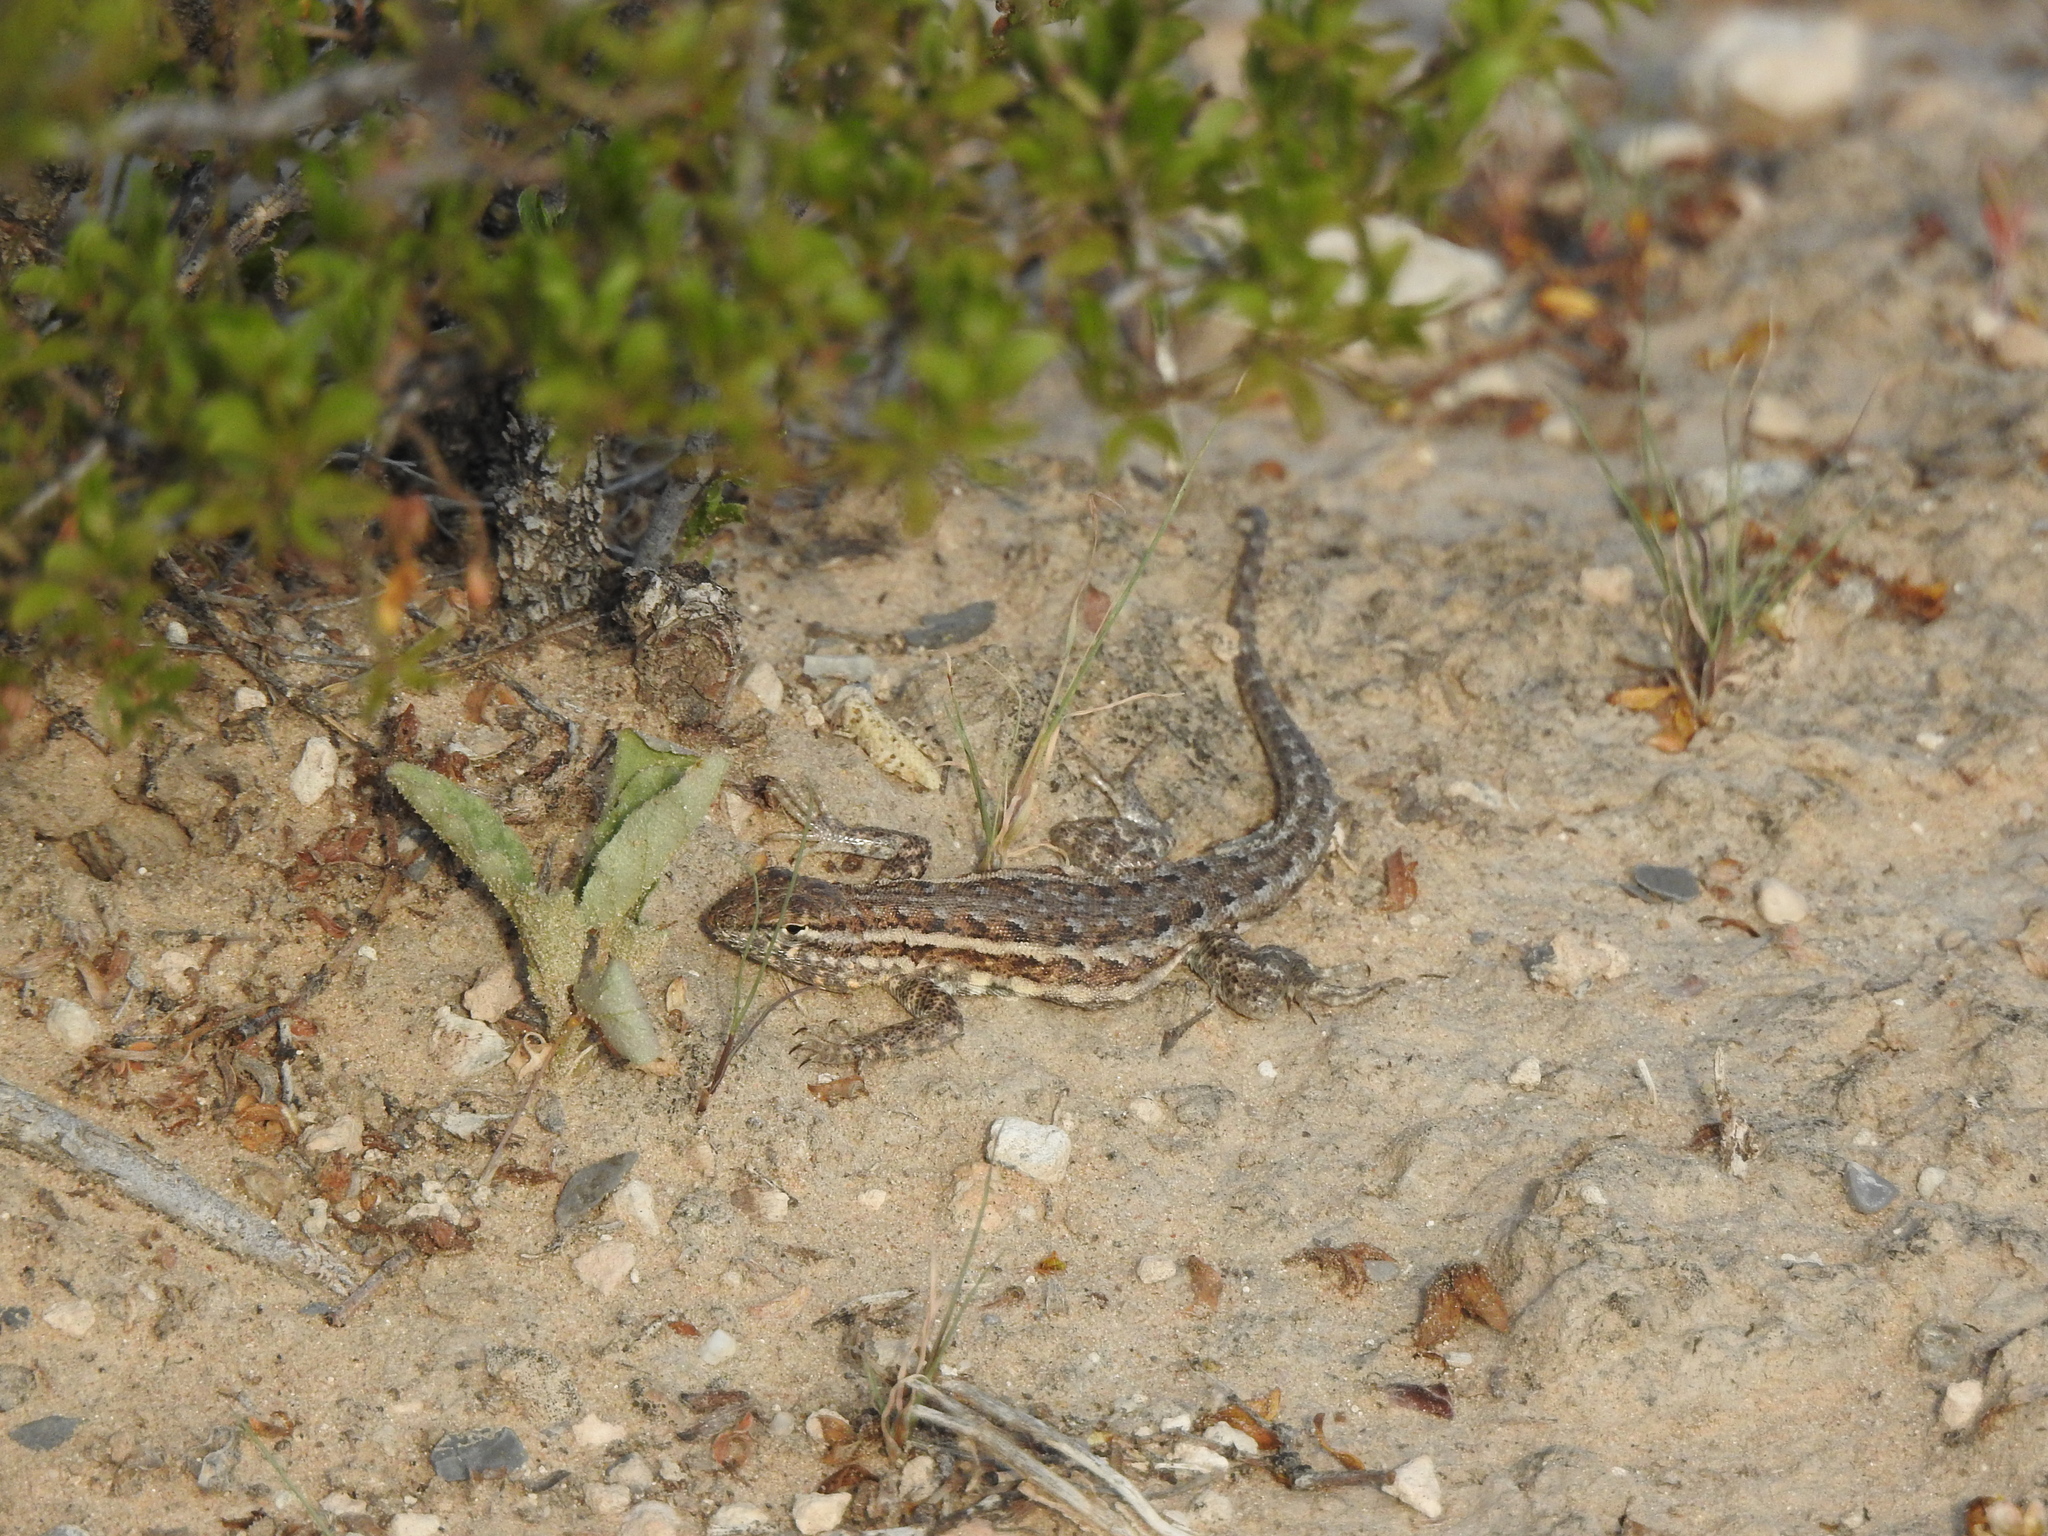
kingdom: Animalia
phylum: Chordata
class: Squamata
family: Phrynosomatidae
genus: Uta
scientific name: Uta stansburiana
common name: Side-blotched lizard
